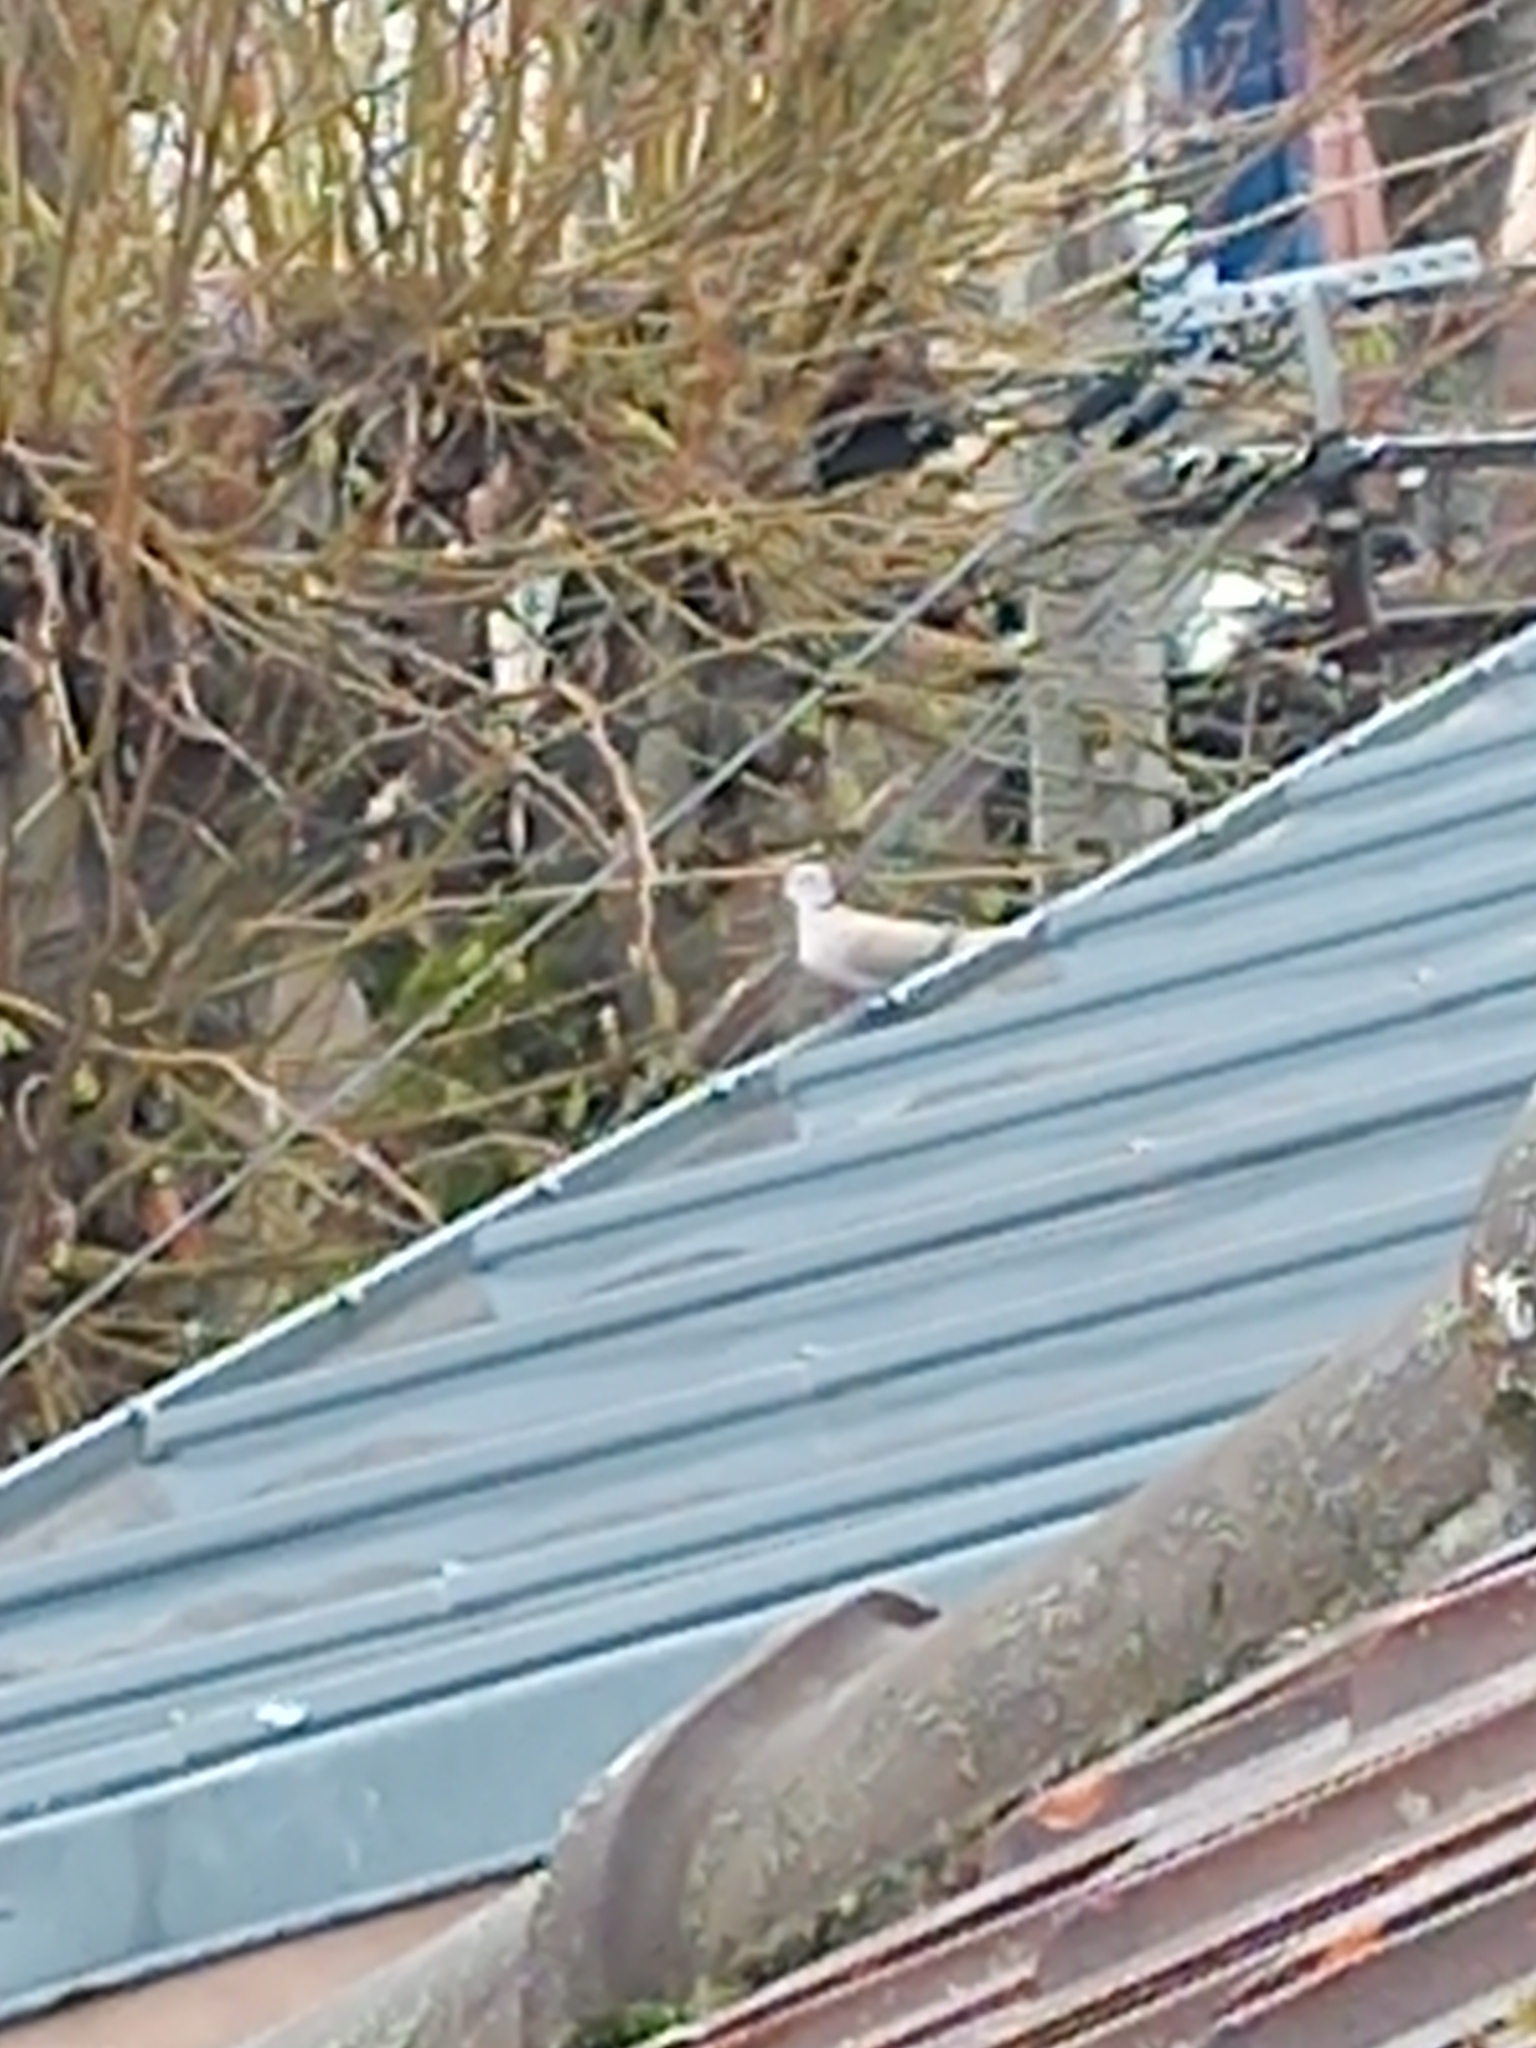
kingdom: Animalia
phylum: Chordata
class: Aves
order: Columbiformes
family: Columbidae
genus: Streptopelia
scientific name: Streptopelia decaocto
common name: Eurasian collared dove
